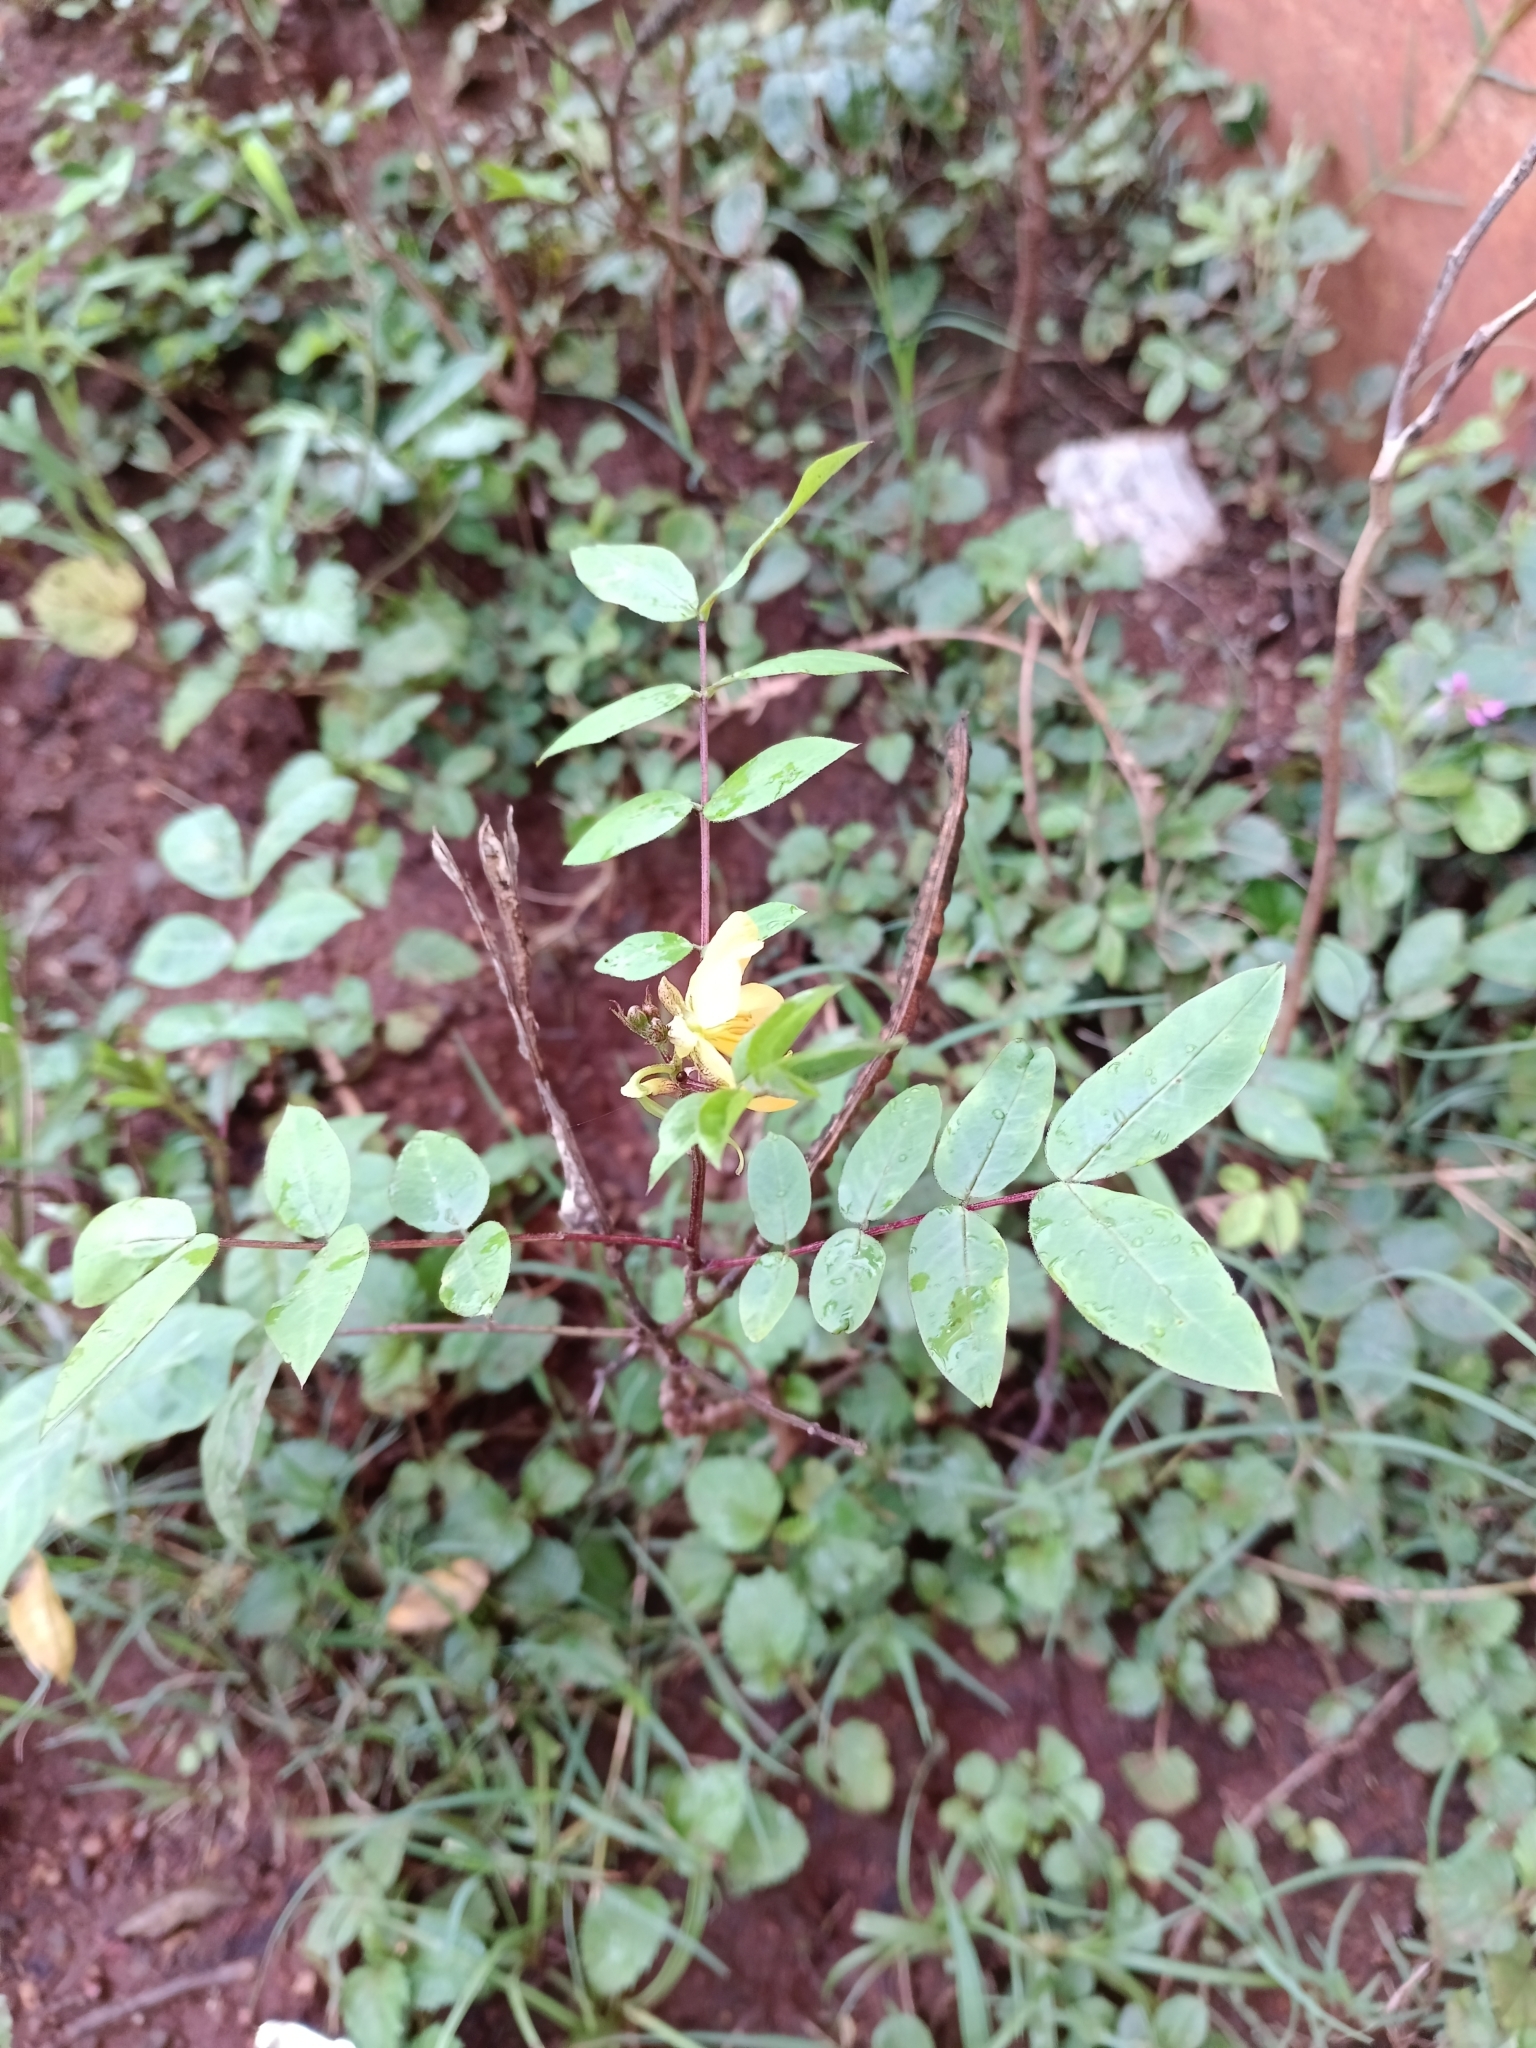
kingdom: Plantae
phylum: Tracheophyta
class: Magnoliopsida
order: Fabales
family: Fabaceae
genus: Senna
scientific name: Senna occidentalis
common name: Septicweed
